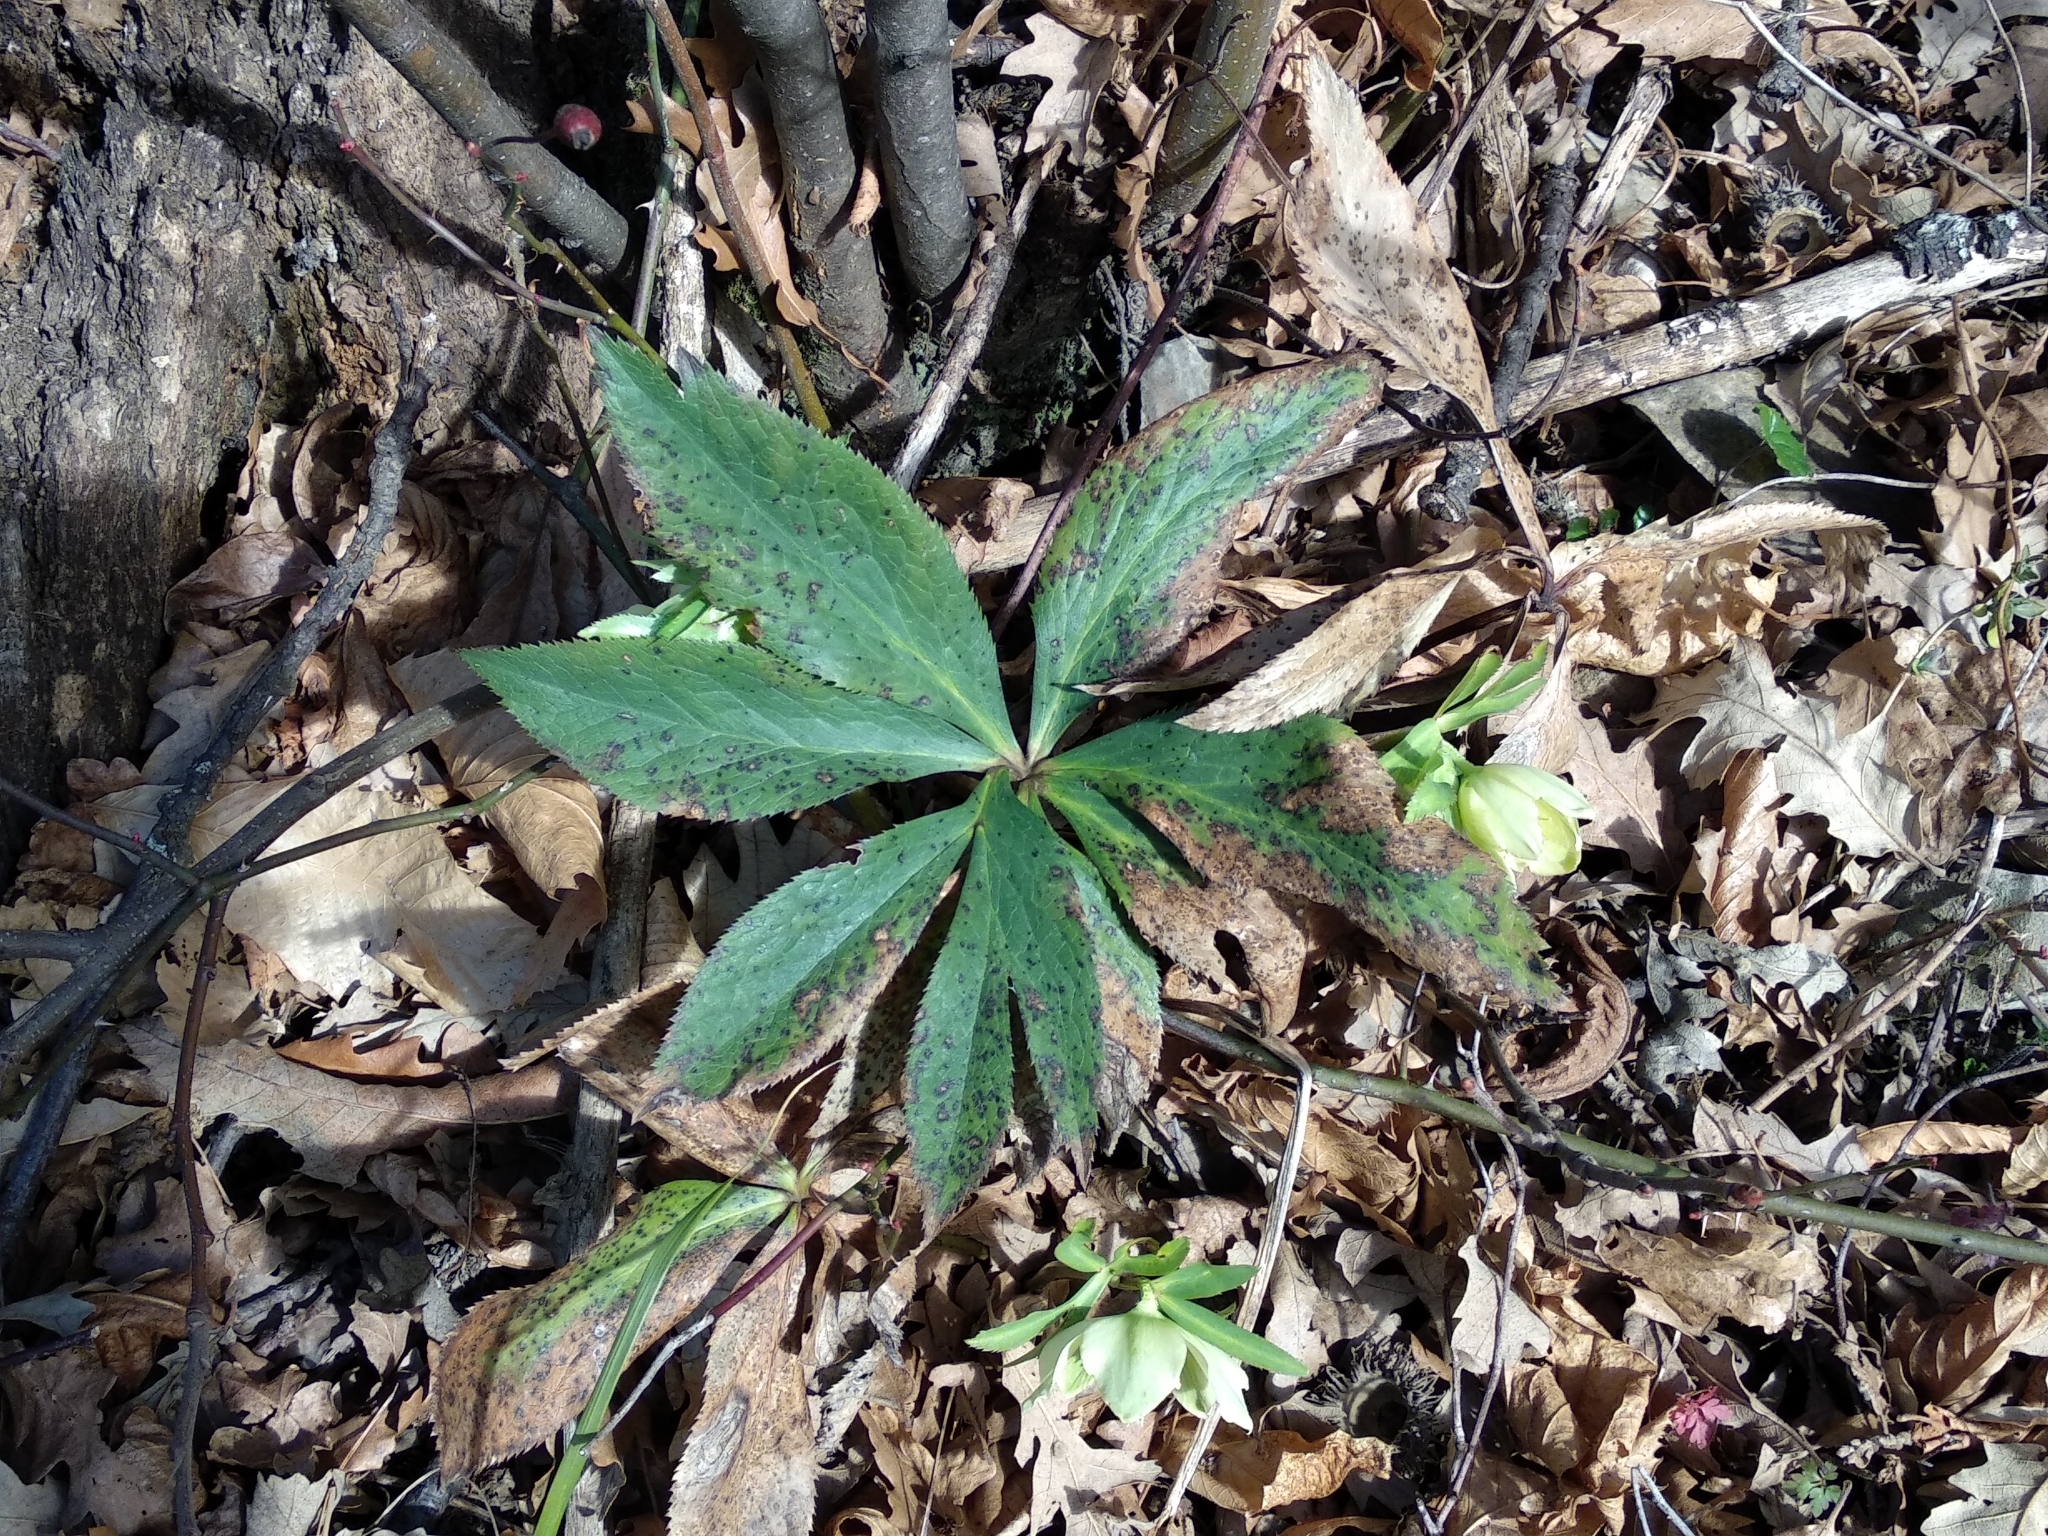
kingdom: Plantae
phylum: Tracheophyta
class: Magnoliopsida
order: Ranunculales
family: Ranunculaceae
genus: Helleborus
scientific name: Helleborus viridis
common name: Green hellebore
